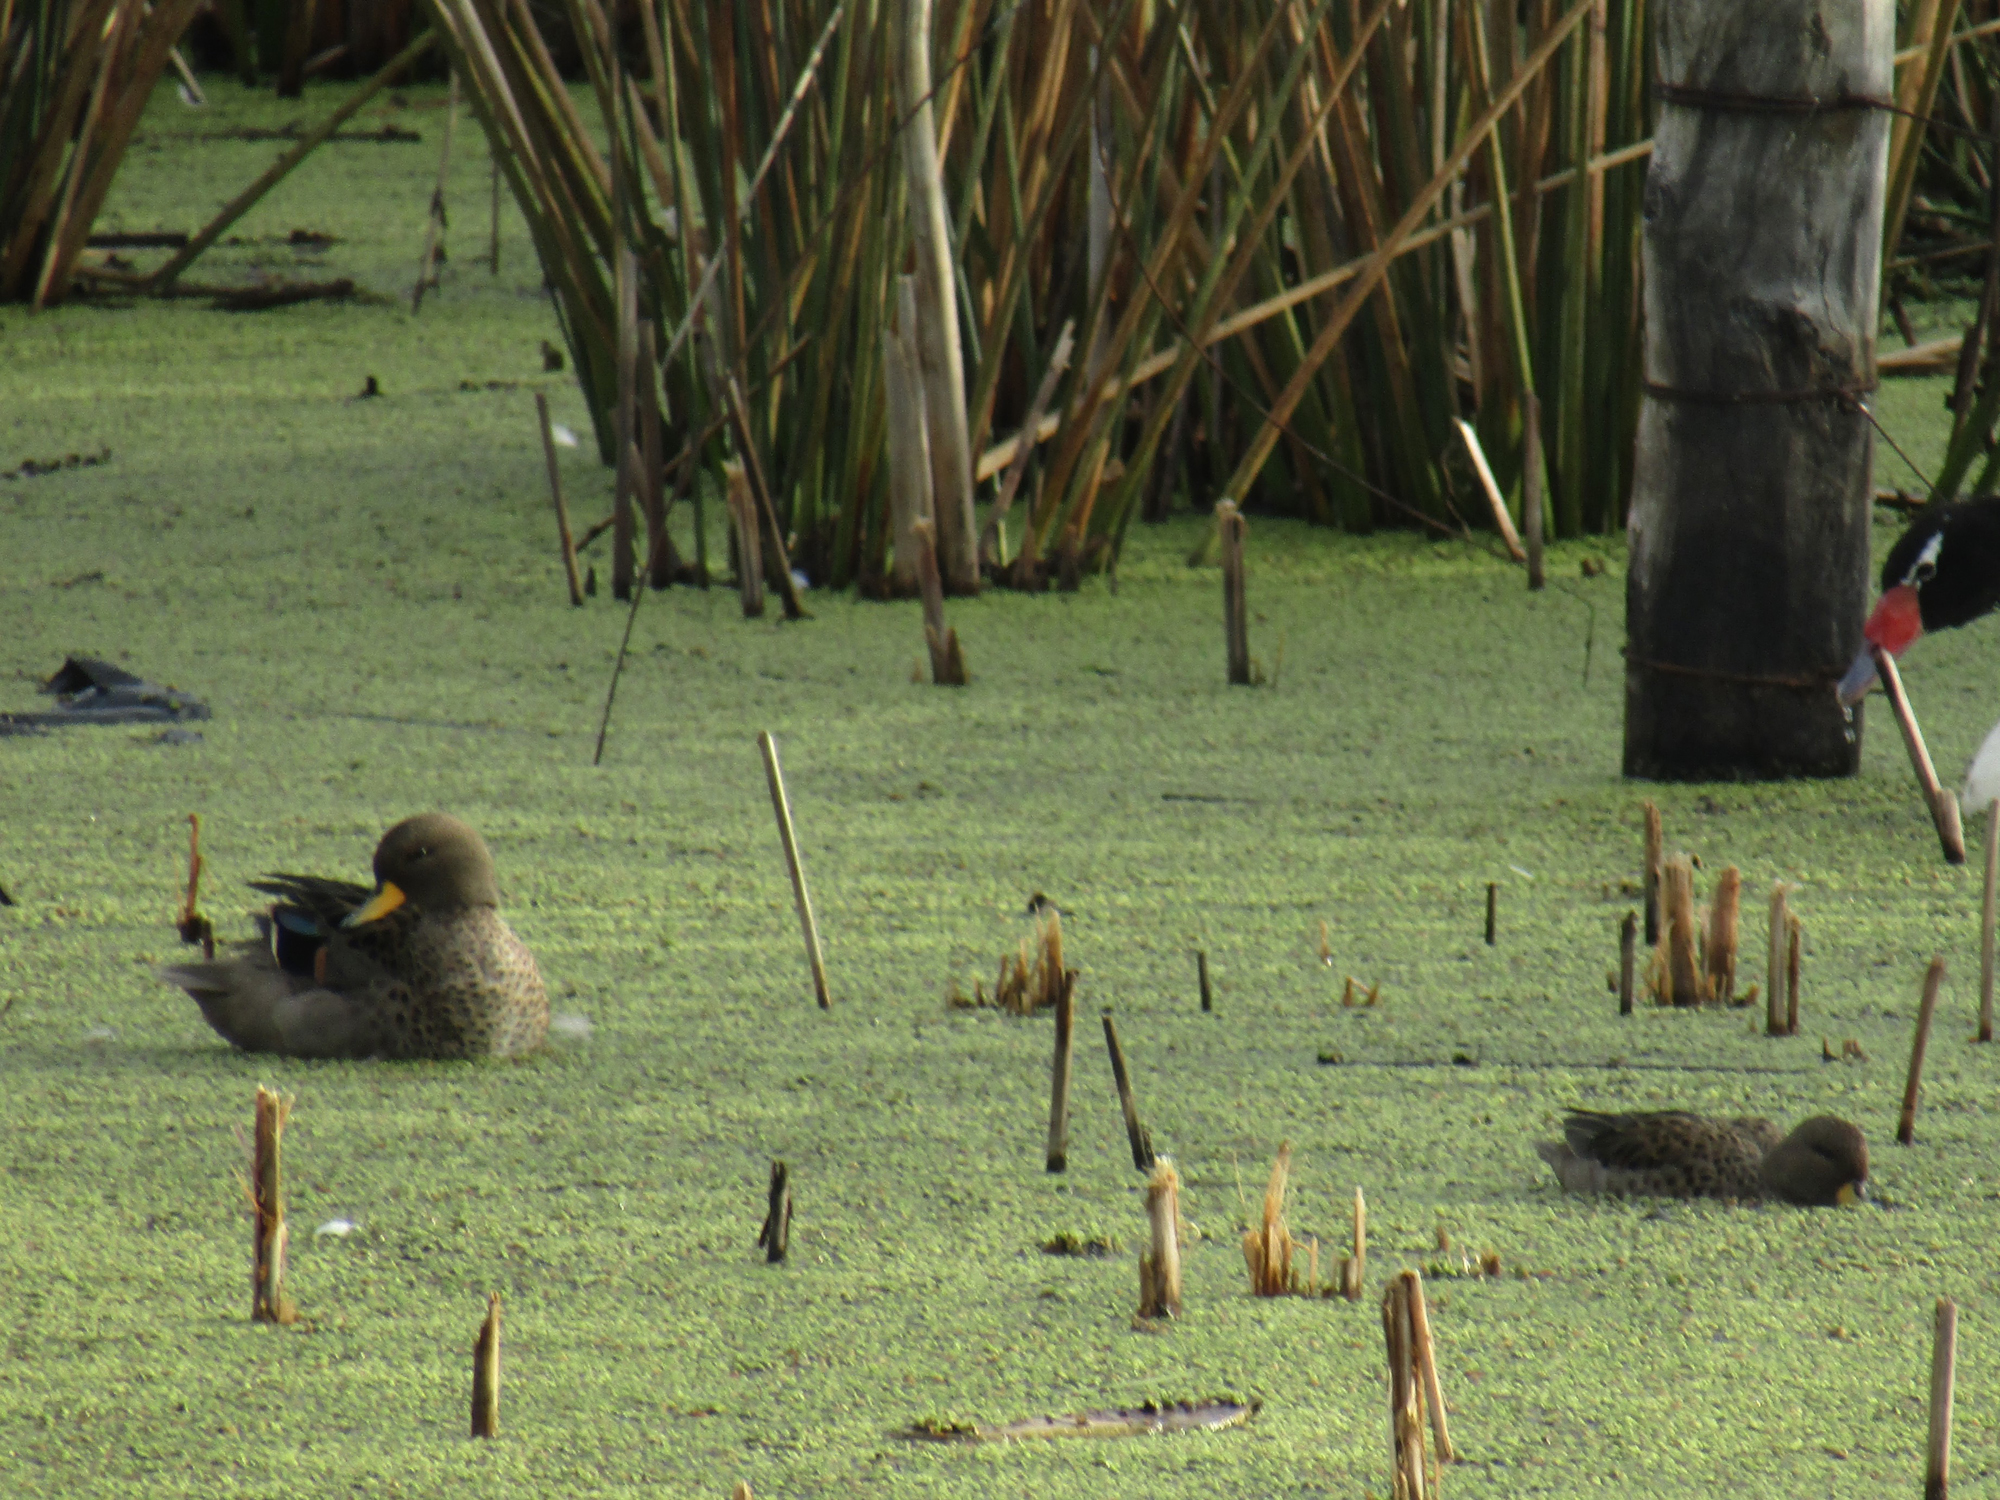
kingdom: Animalia
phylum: Chordata
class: Aves
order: Anseriformes
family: Anatidae
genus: Anas
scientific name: Anas flavirostris
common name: Yellow-billed teal
